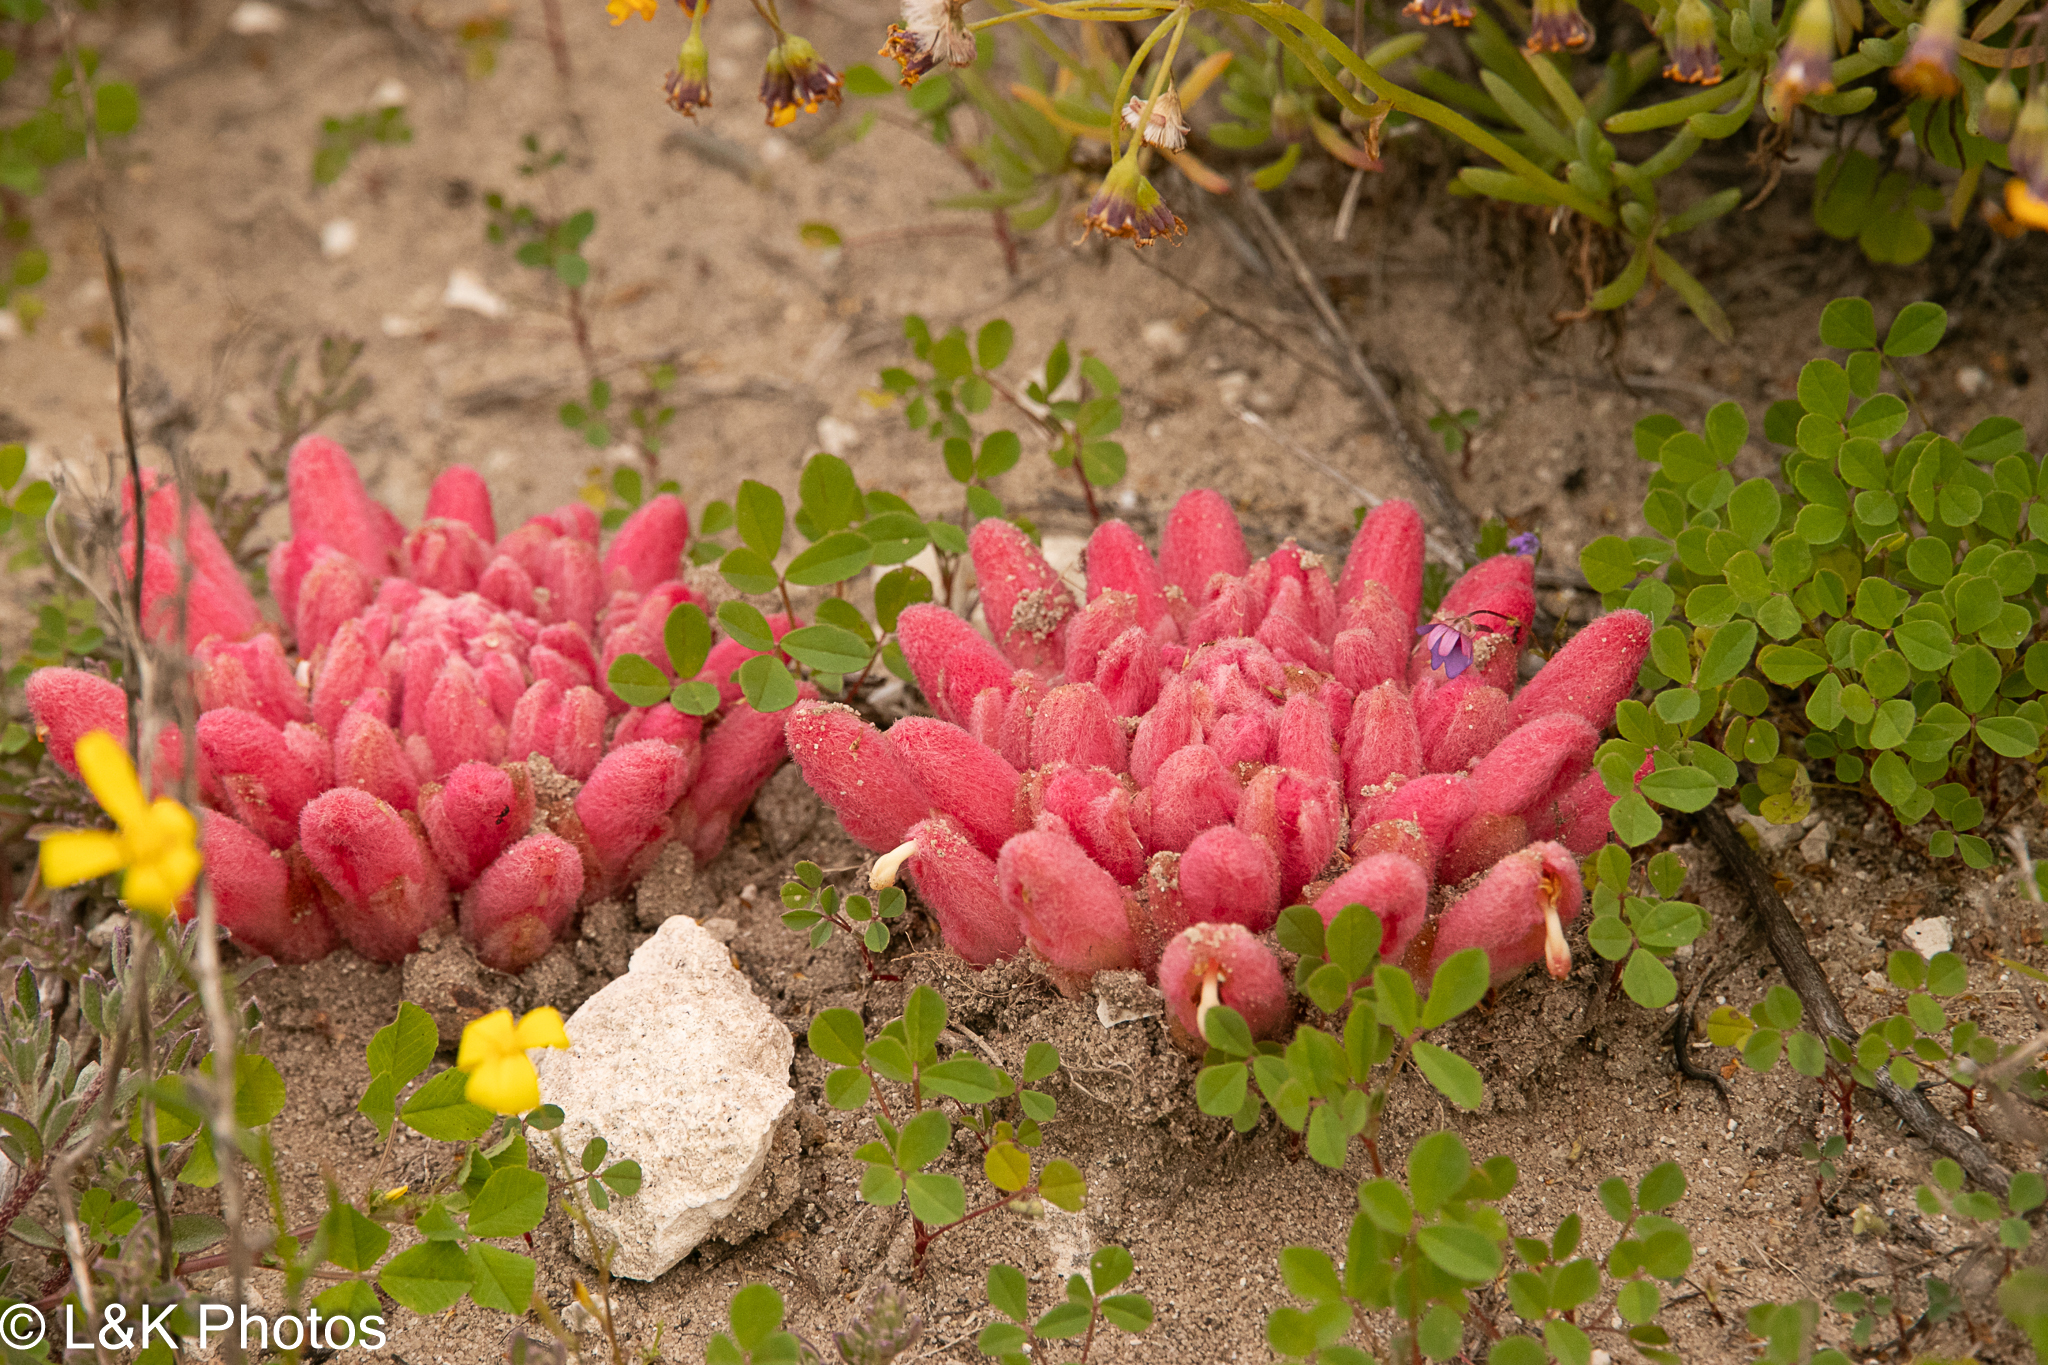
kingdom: Plantae
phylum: Tracheophyta
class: Magnoliopsida
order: Lamiales
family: Orobanchaceae
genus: Hyobanche
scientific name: Hyobanche sanguinea
